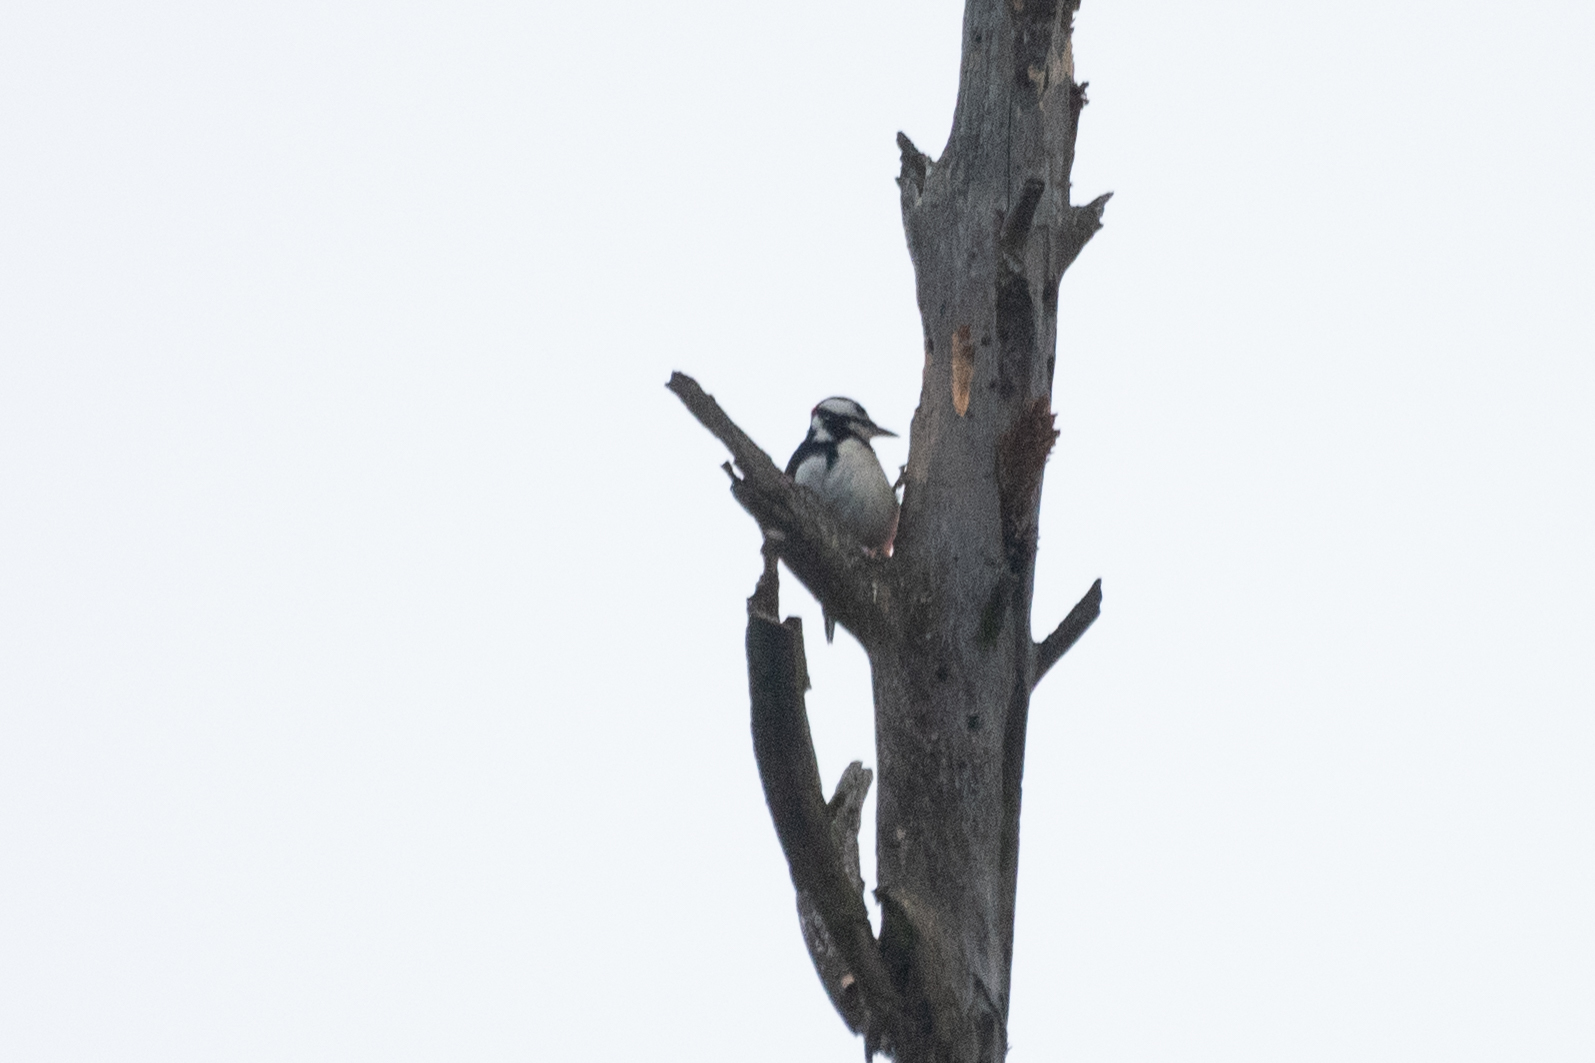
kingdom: Animalia
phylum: Chordata
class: Aves
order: Piciformes
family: Picidae
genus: Dendrocopos
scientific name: Dendrocopos major
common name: Great spotted woodpecker
